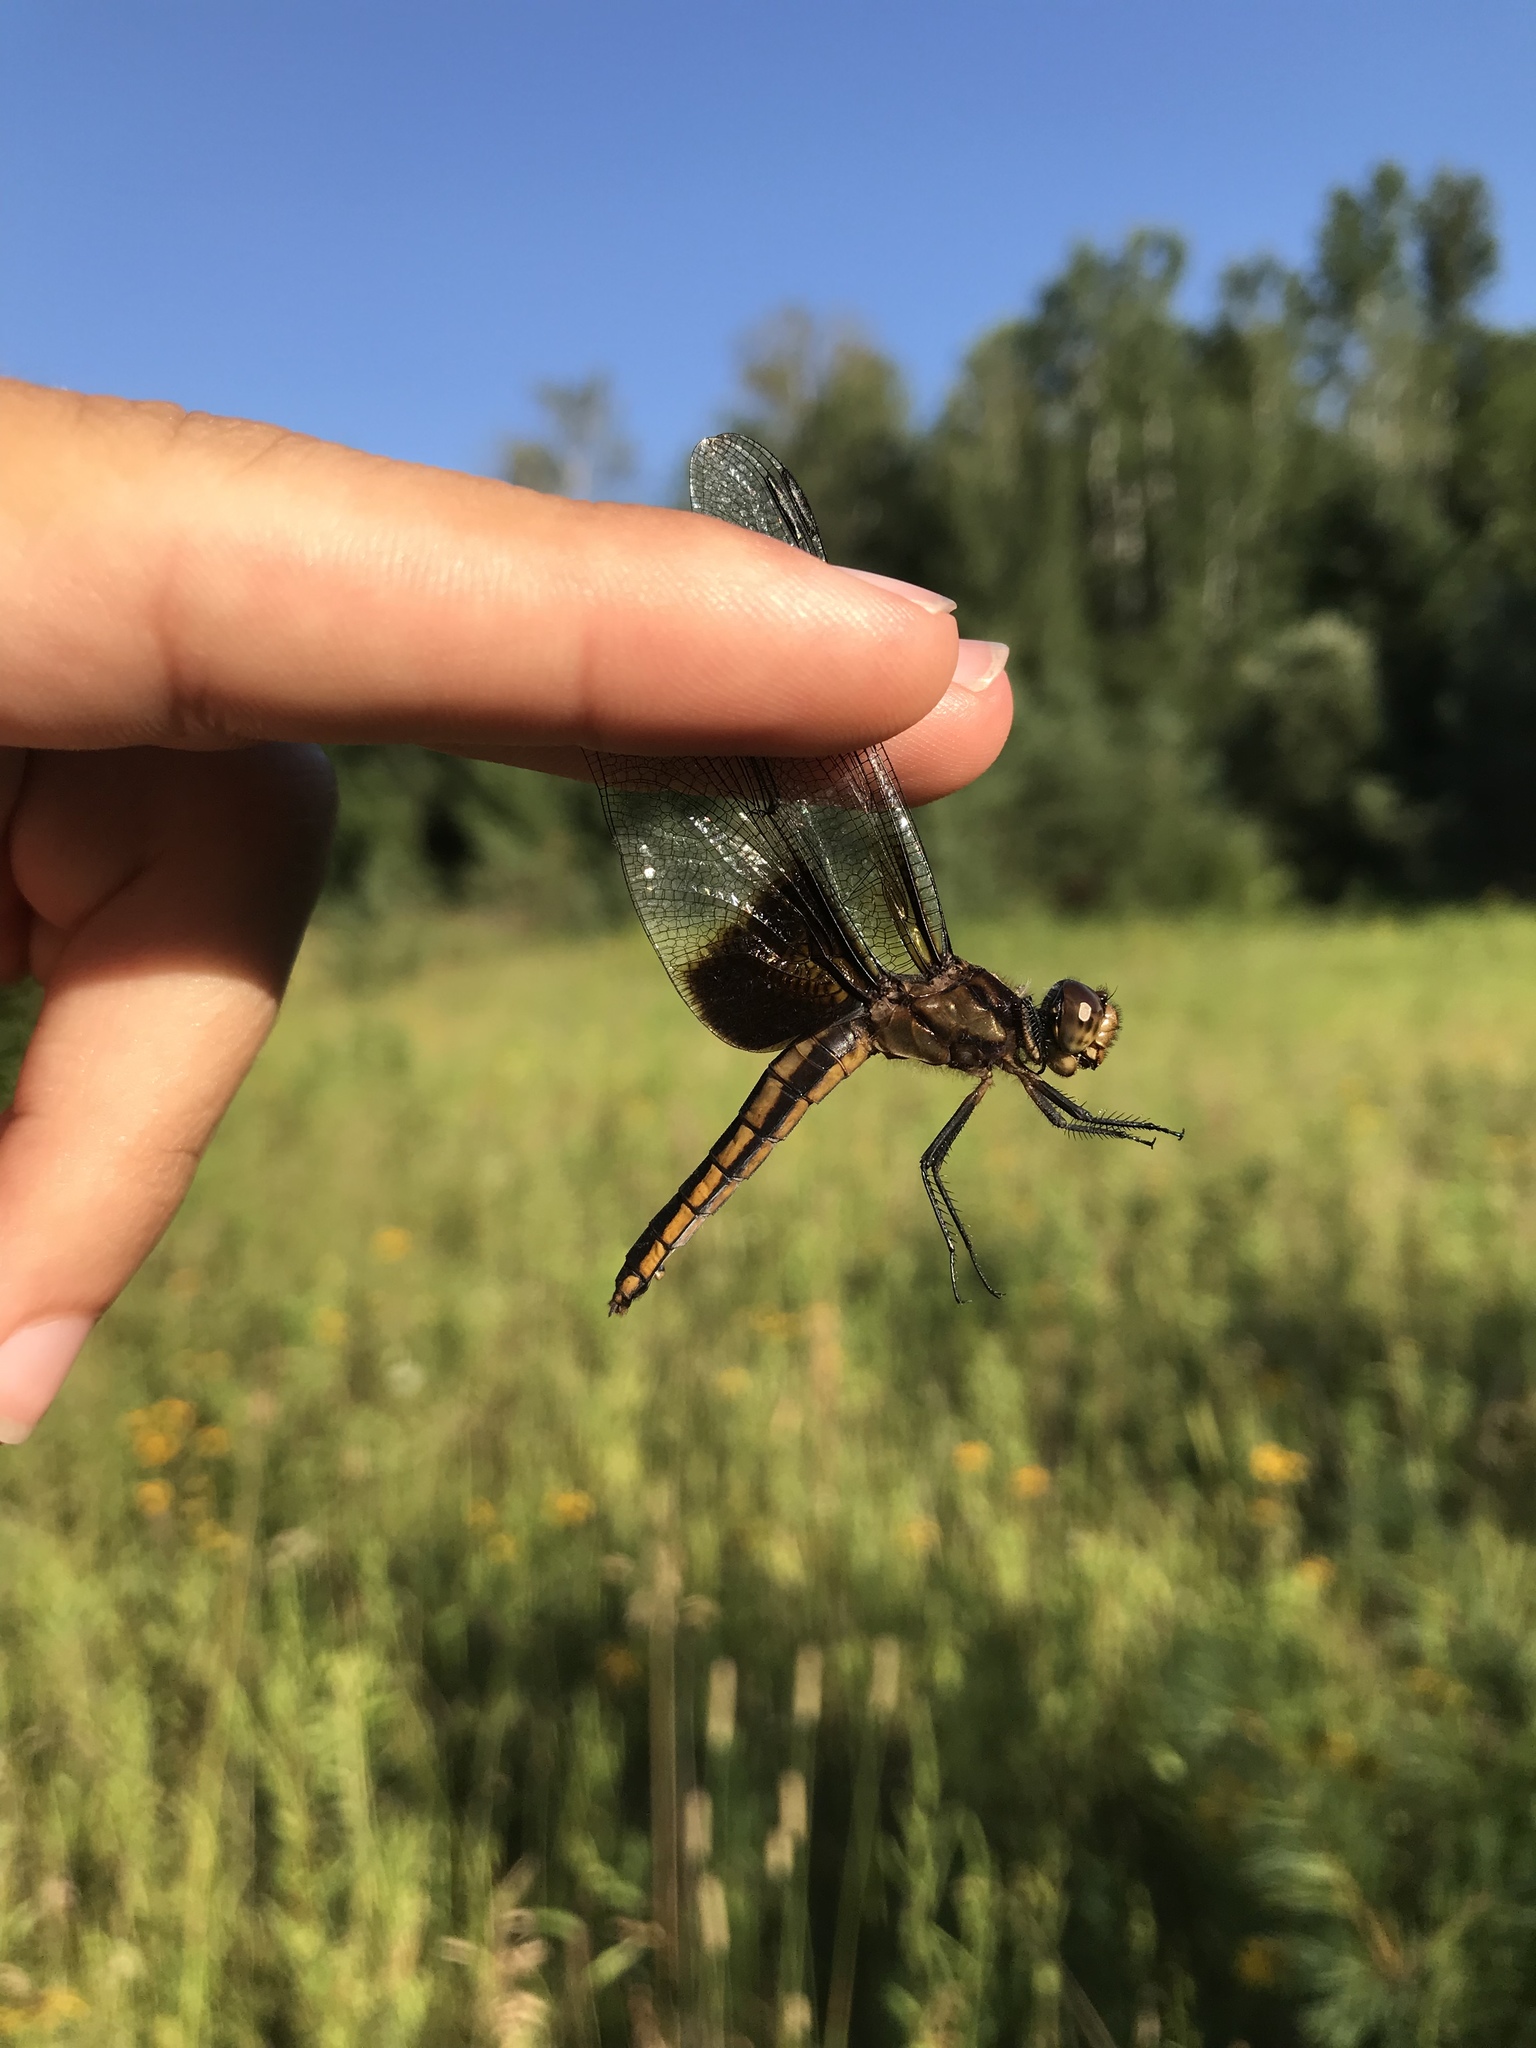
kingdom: Animalia
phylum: Arthropoda
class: Insecta
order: Odonata
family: Libellulidae
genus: Libellula
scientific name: Libellula luctuosa
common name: Widow skimmer
